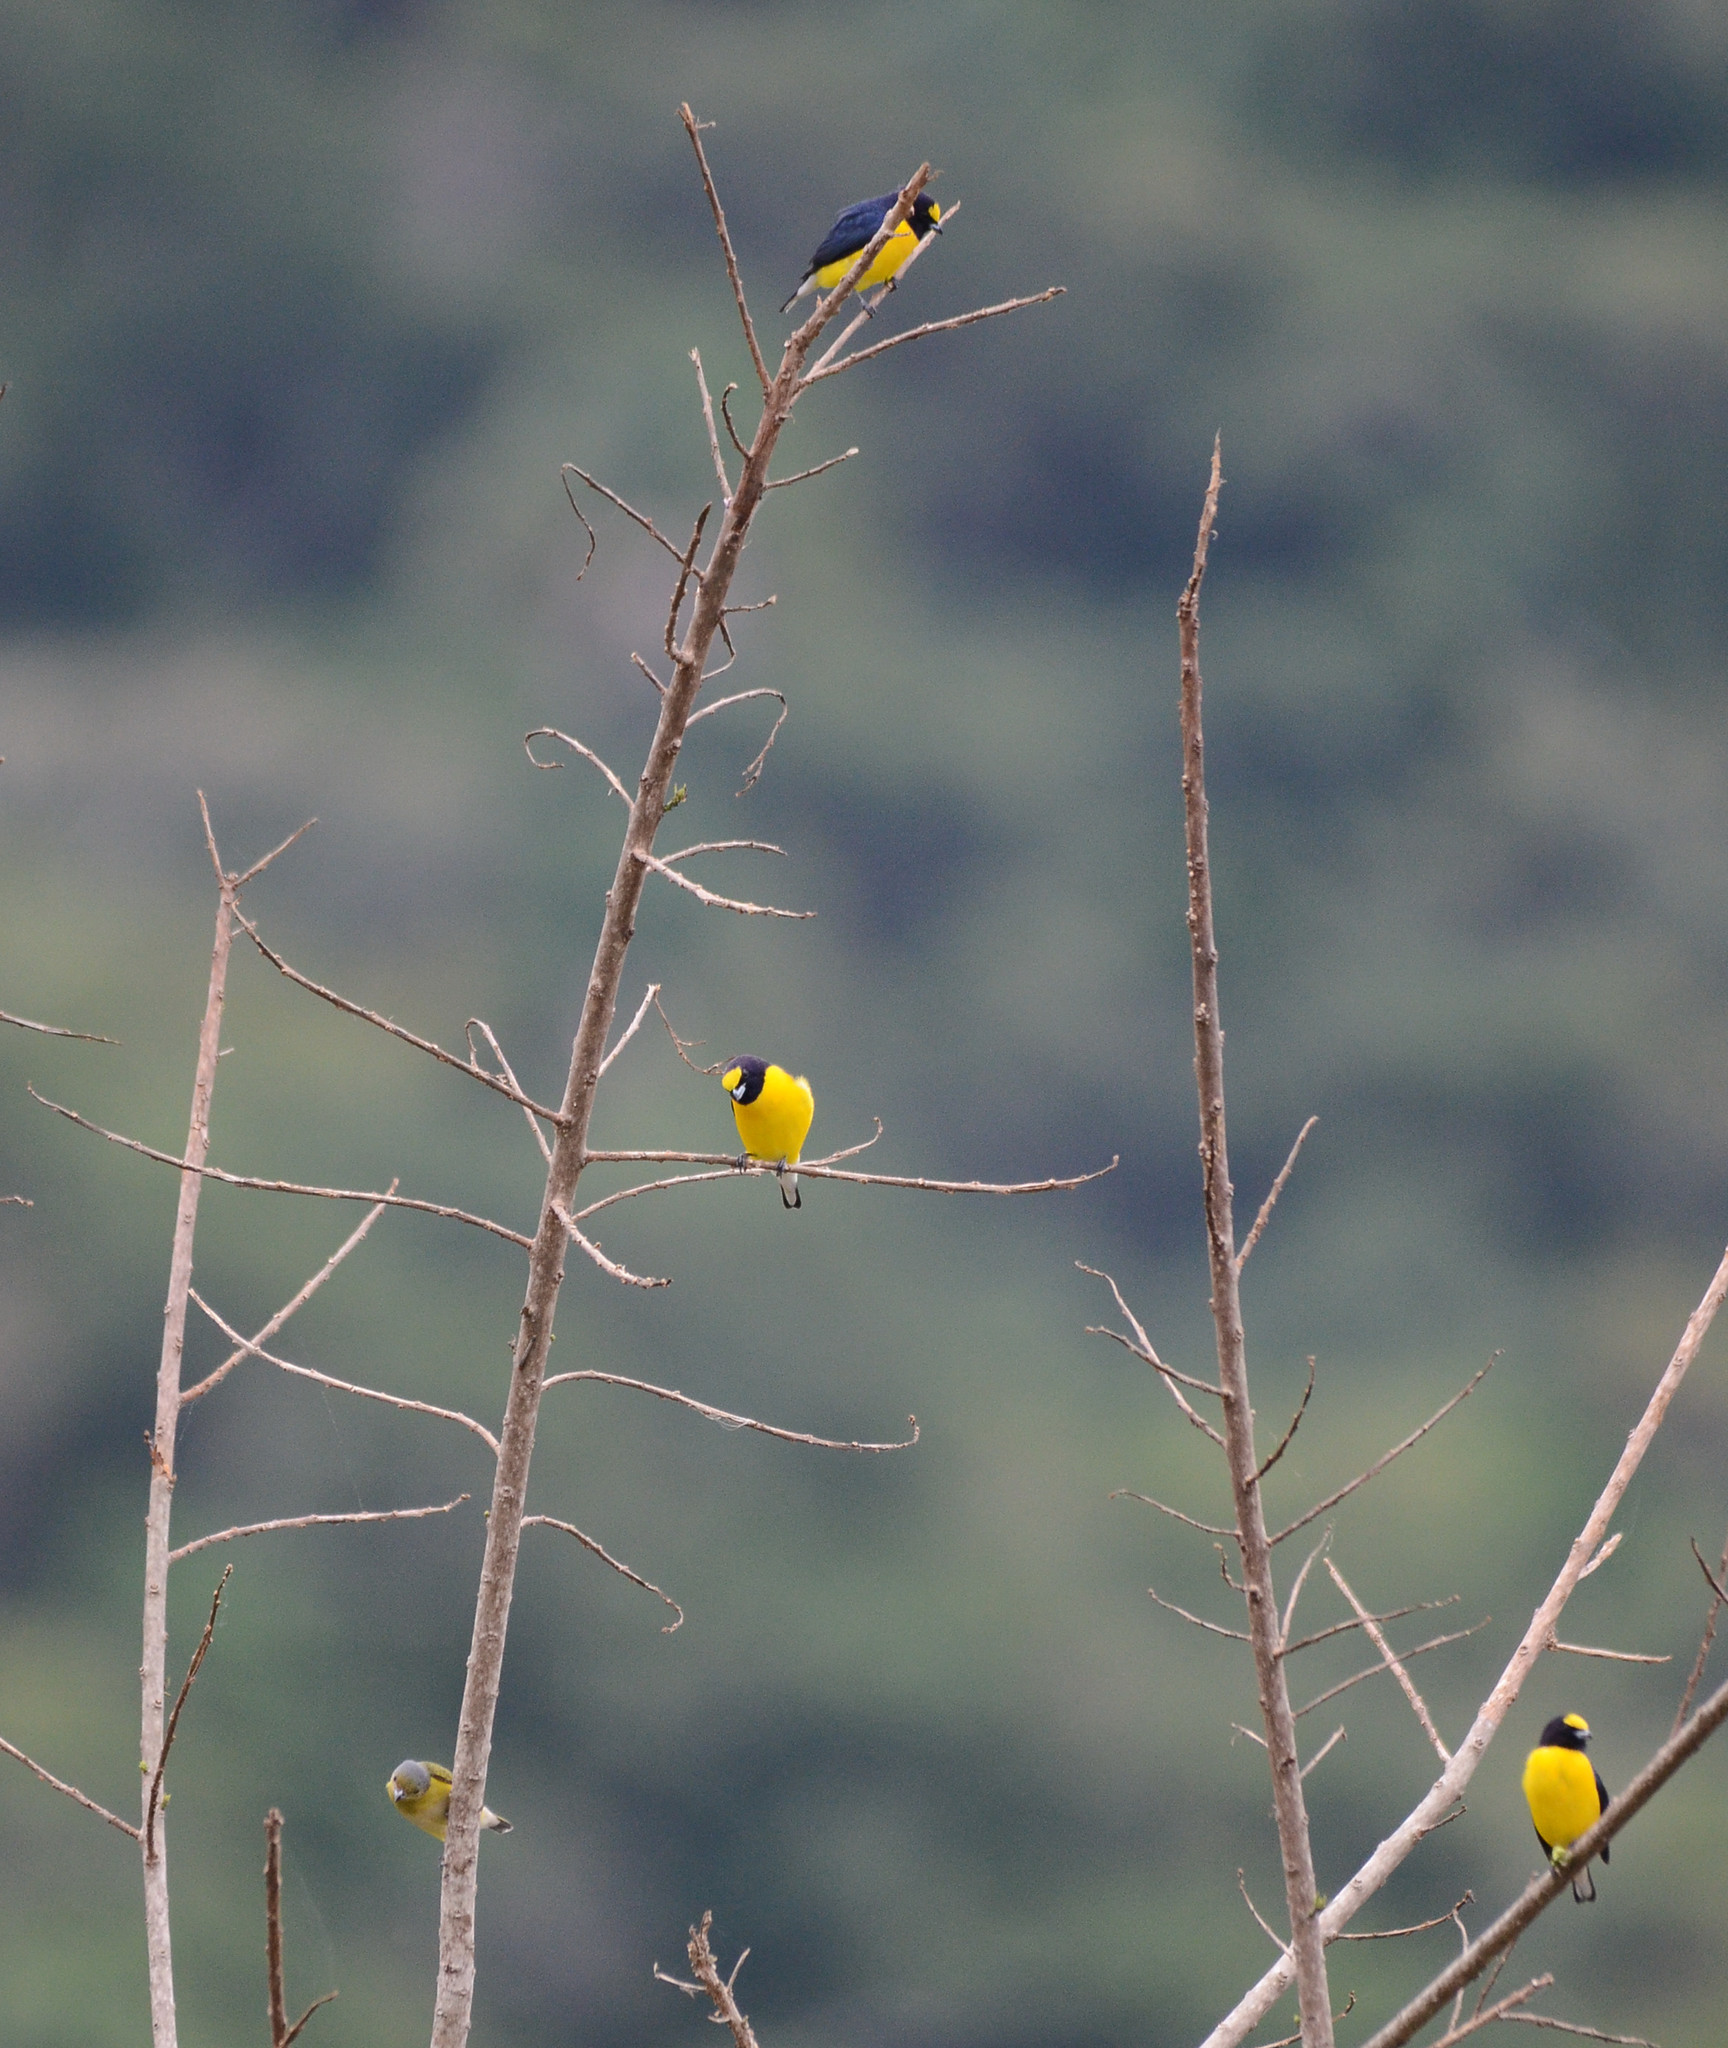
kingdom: Animalia
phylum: Chordata
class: Aves
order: Passeriformes
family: Fringillidae
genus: Euphonia
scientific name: Euphonia godmani
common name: West mexican euphonia
